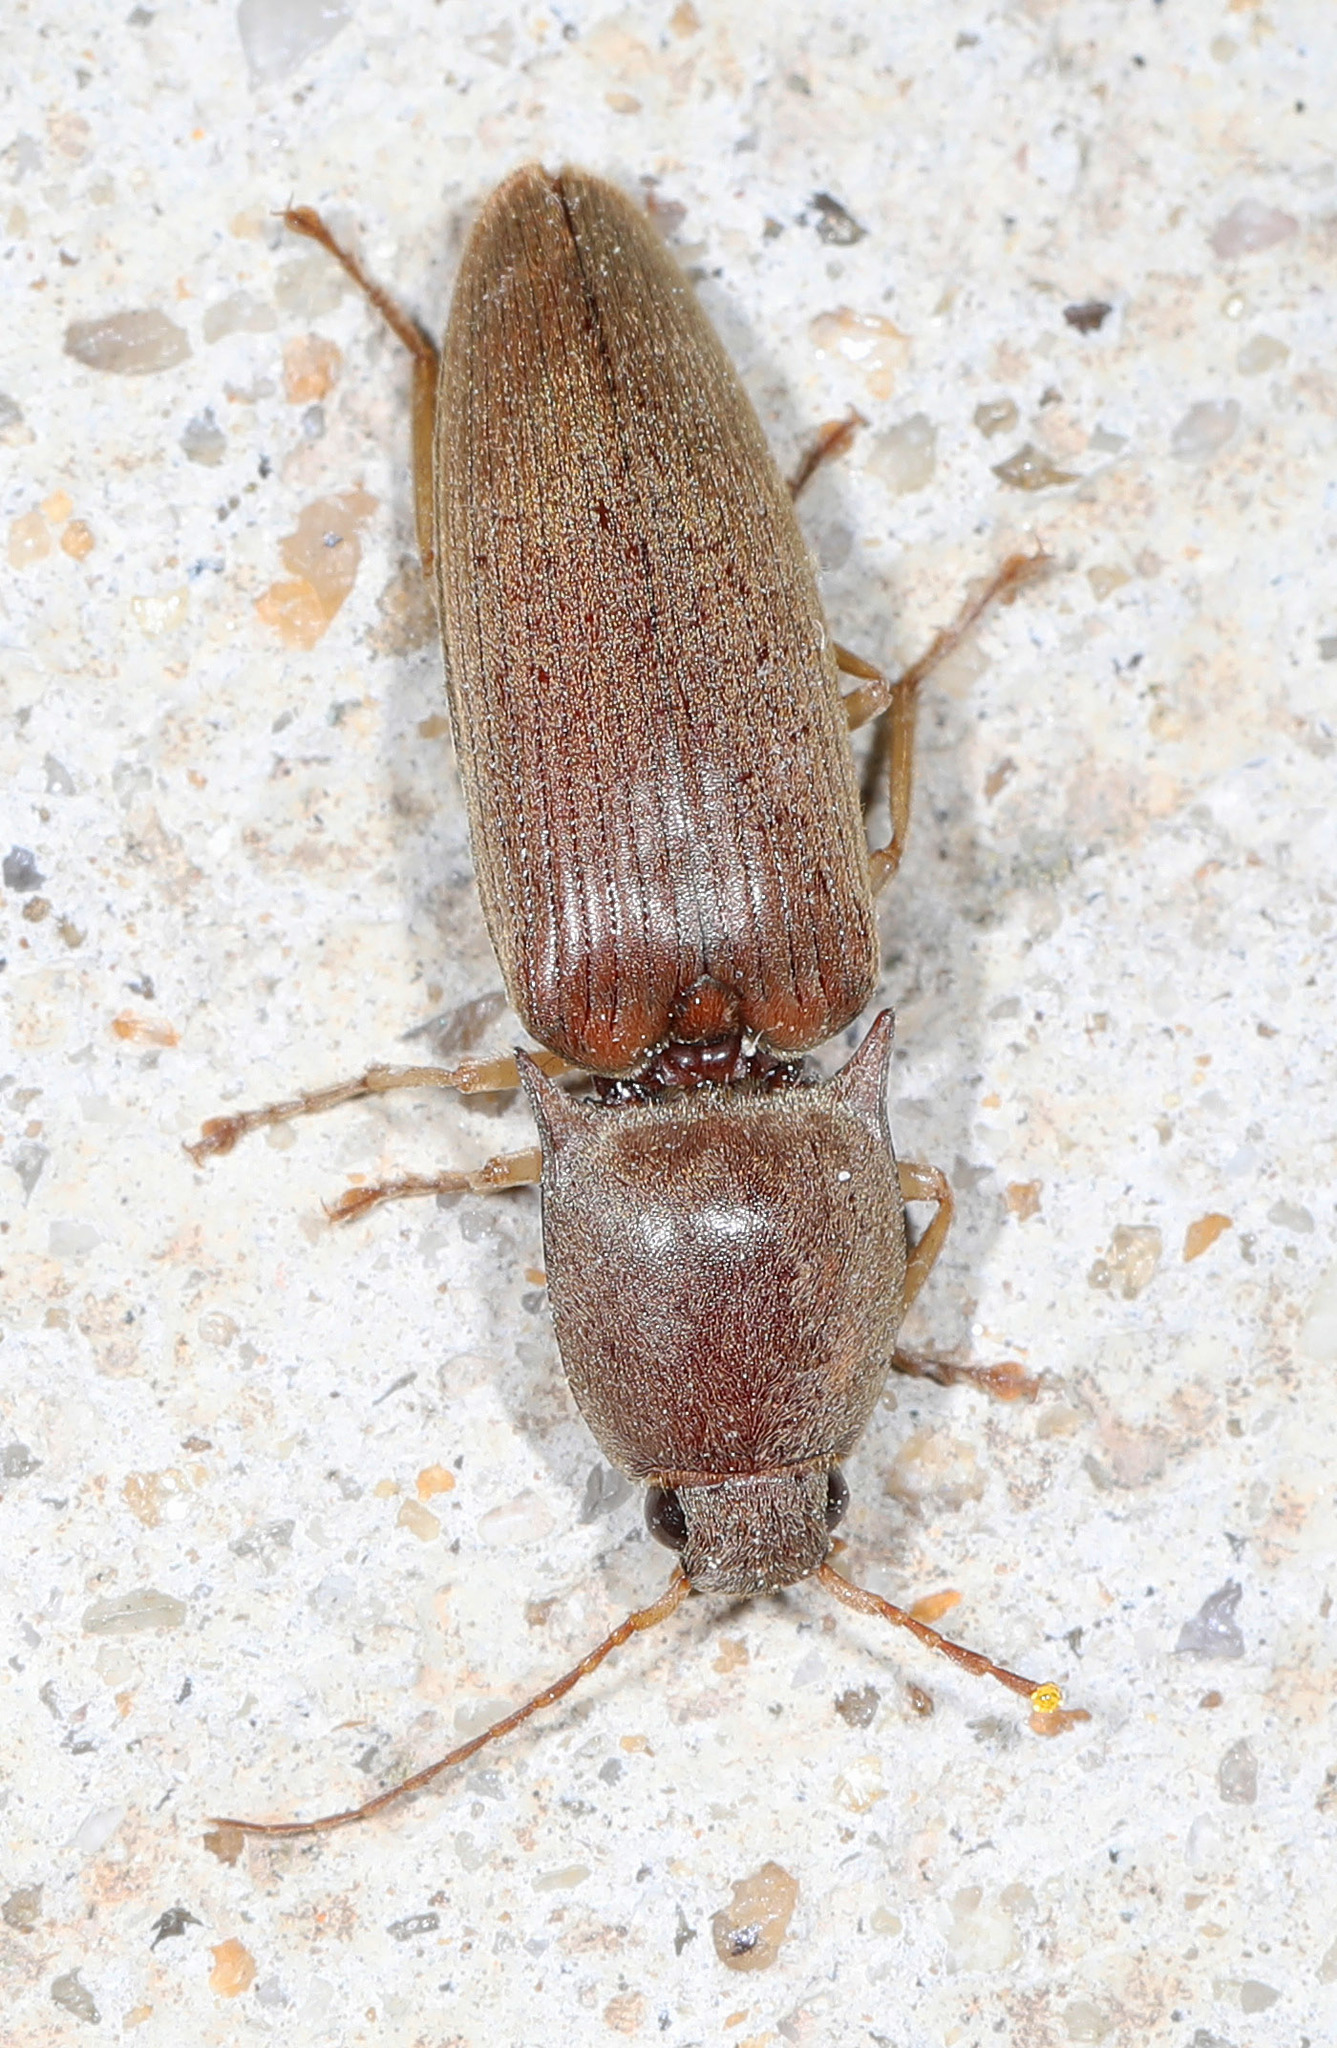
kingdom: Animalia
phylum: Arthropoda
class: Insecta
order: Coleoptera
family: Elateridae
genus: Monocrepidius
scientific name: Monocrepidius lividus
